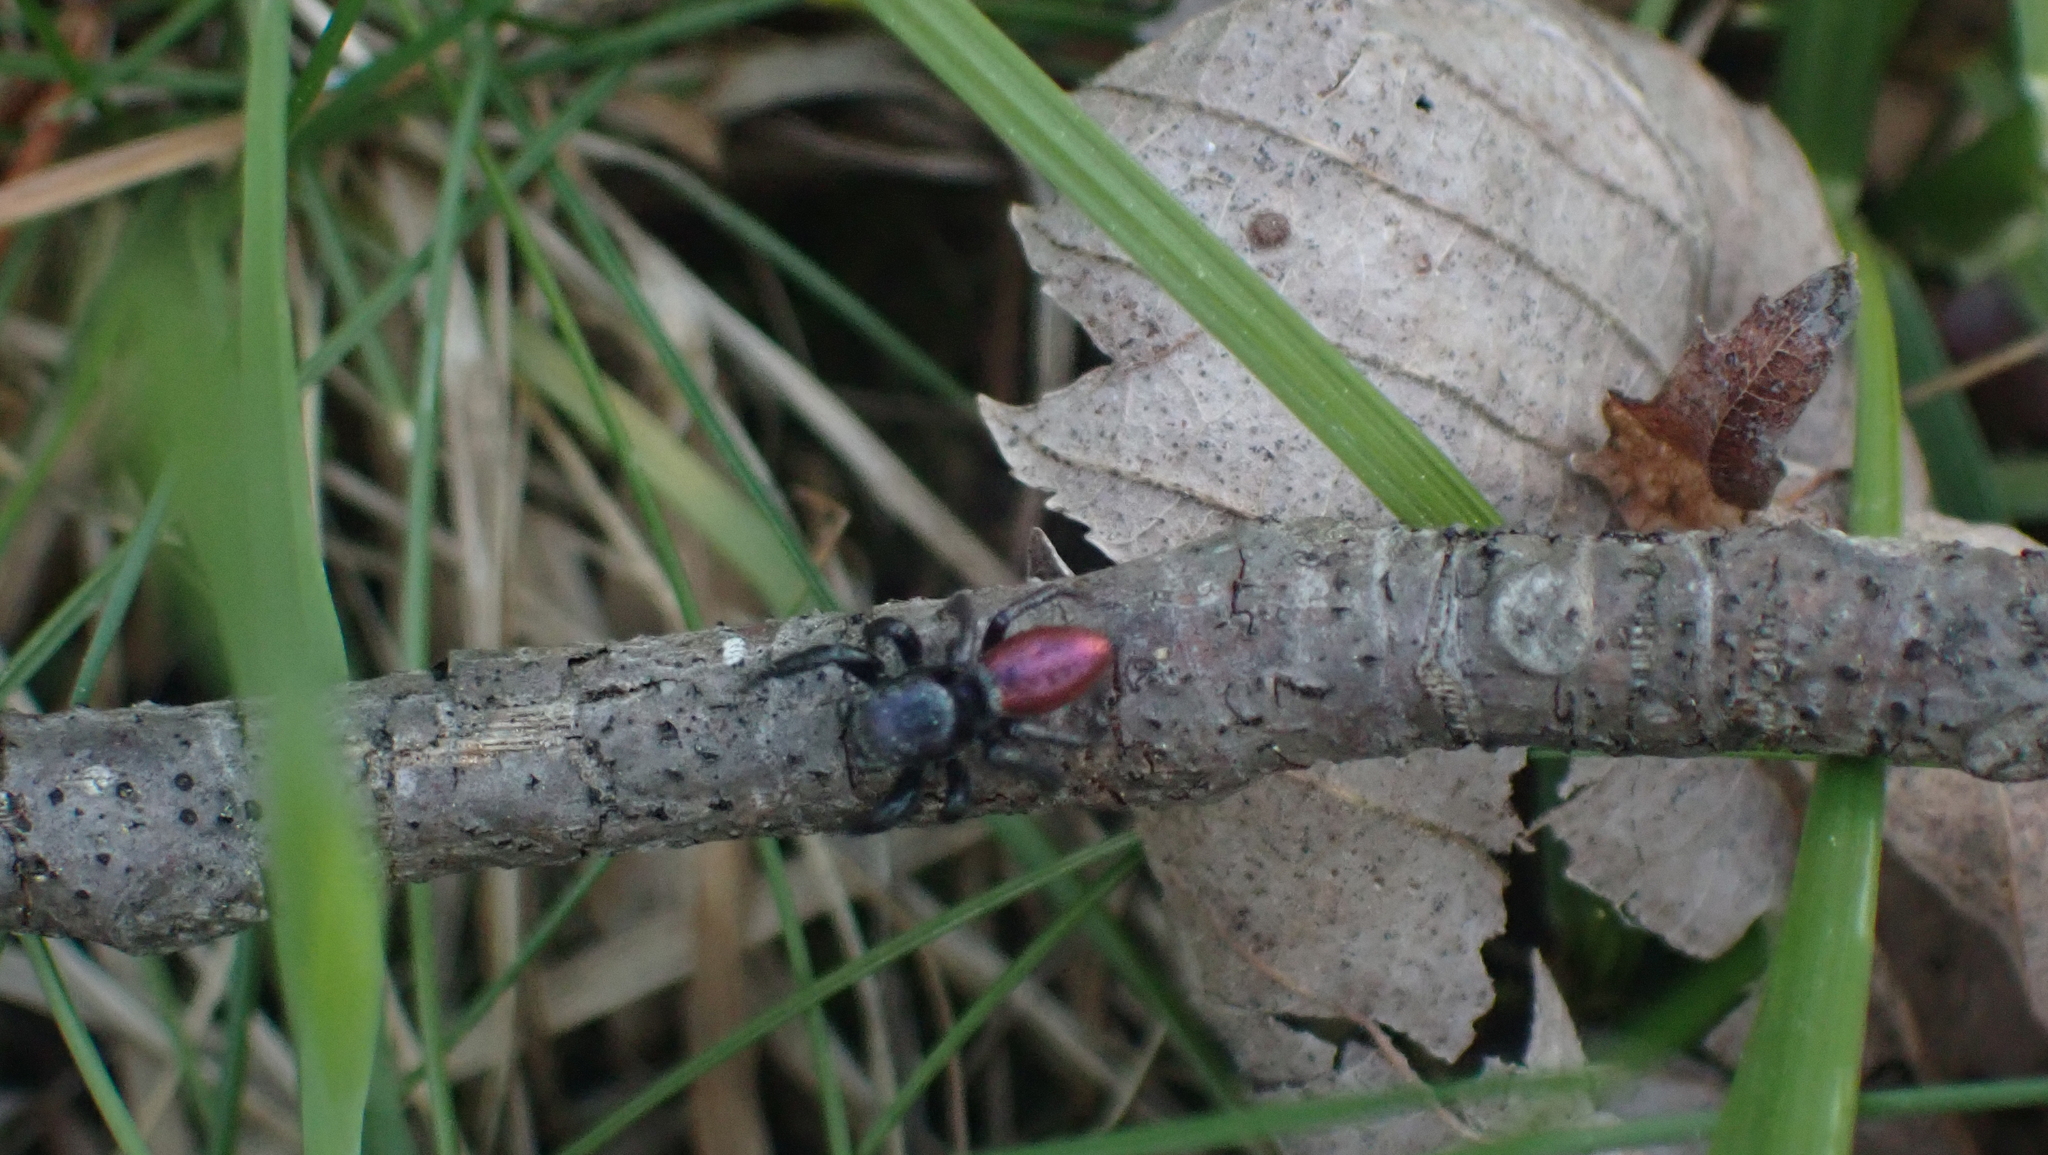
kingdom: Animalia
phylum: Arthropoda
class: Arachnida
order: Araneae
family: Salticidae
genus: Habronattus
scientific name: Habronattus decorus
